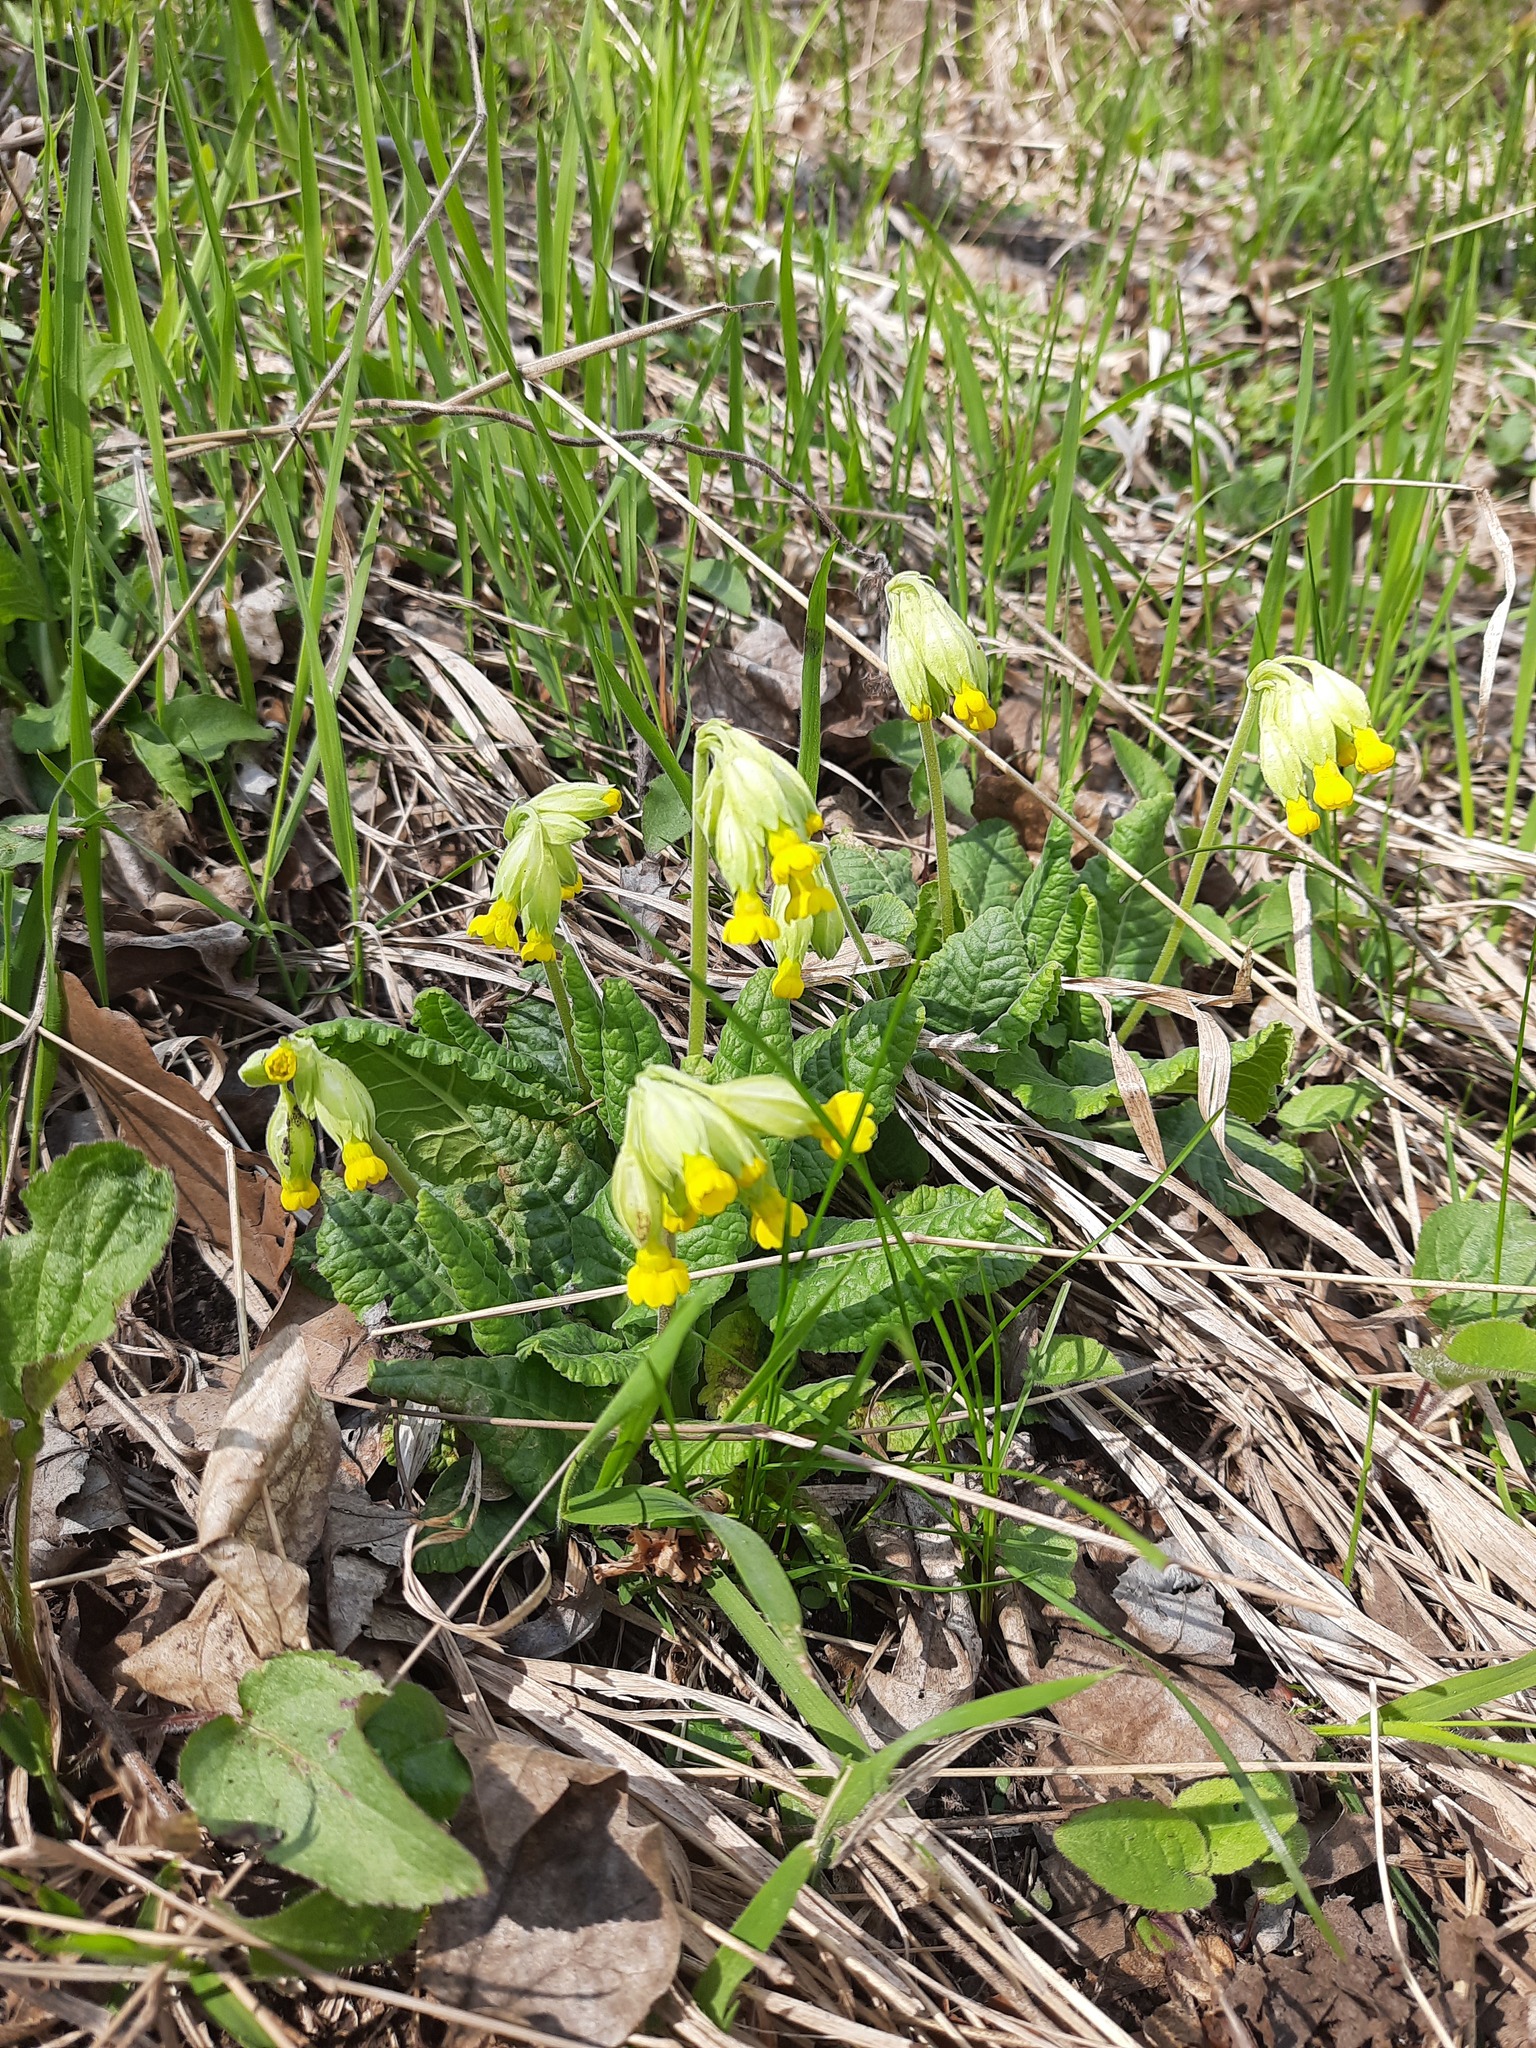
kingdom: Plantae
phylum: Tracheophyta
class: Magnoliopsida
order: Ericales
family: Primulaceae
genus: Primula
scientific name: Primula veris
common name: Cowslip
